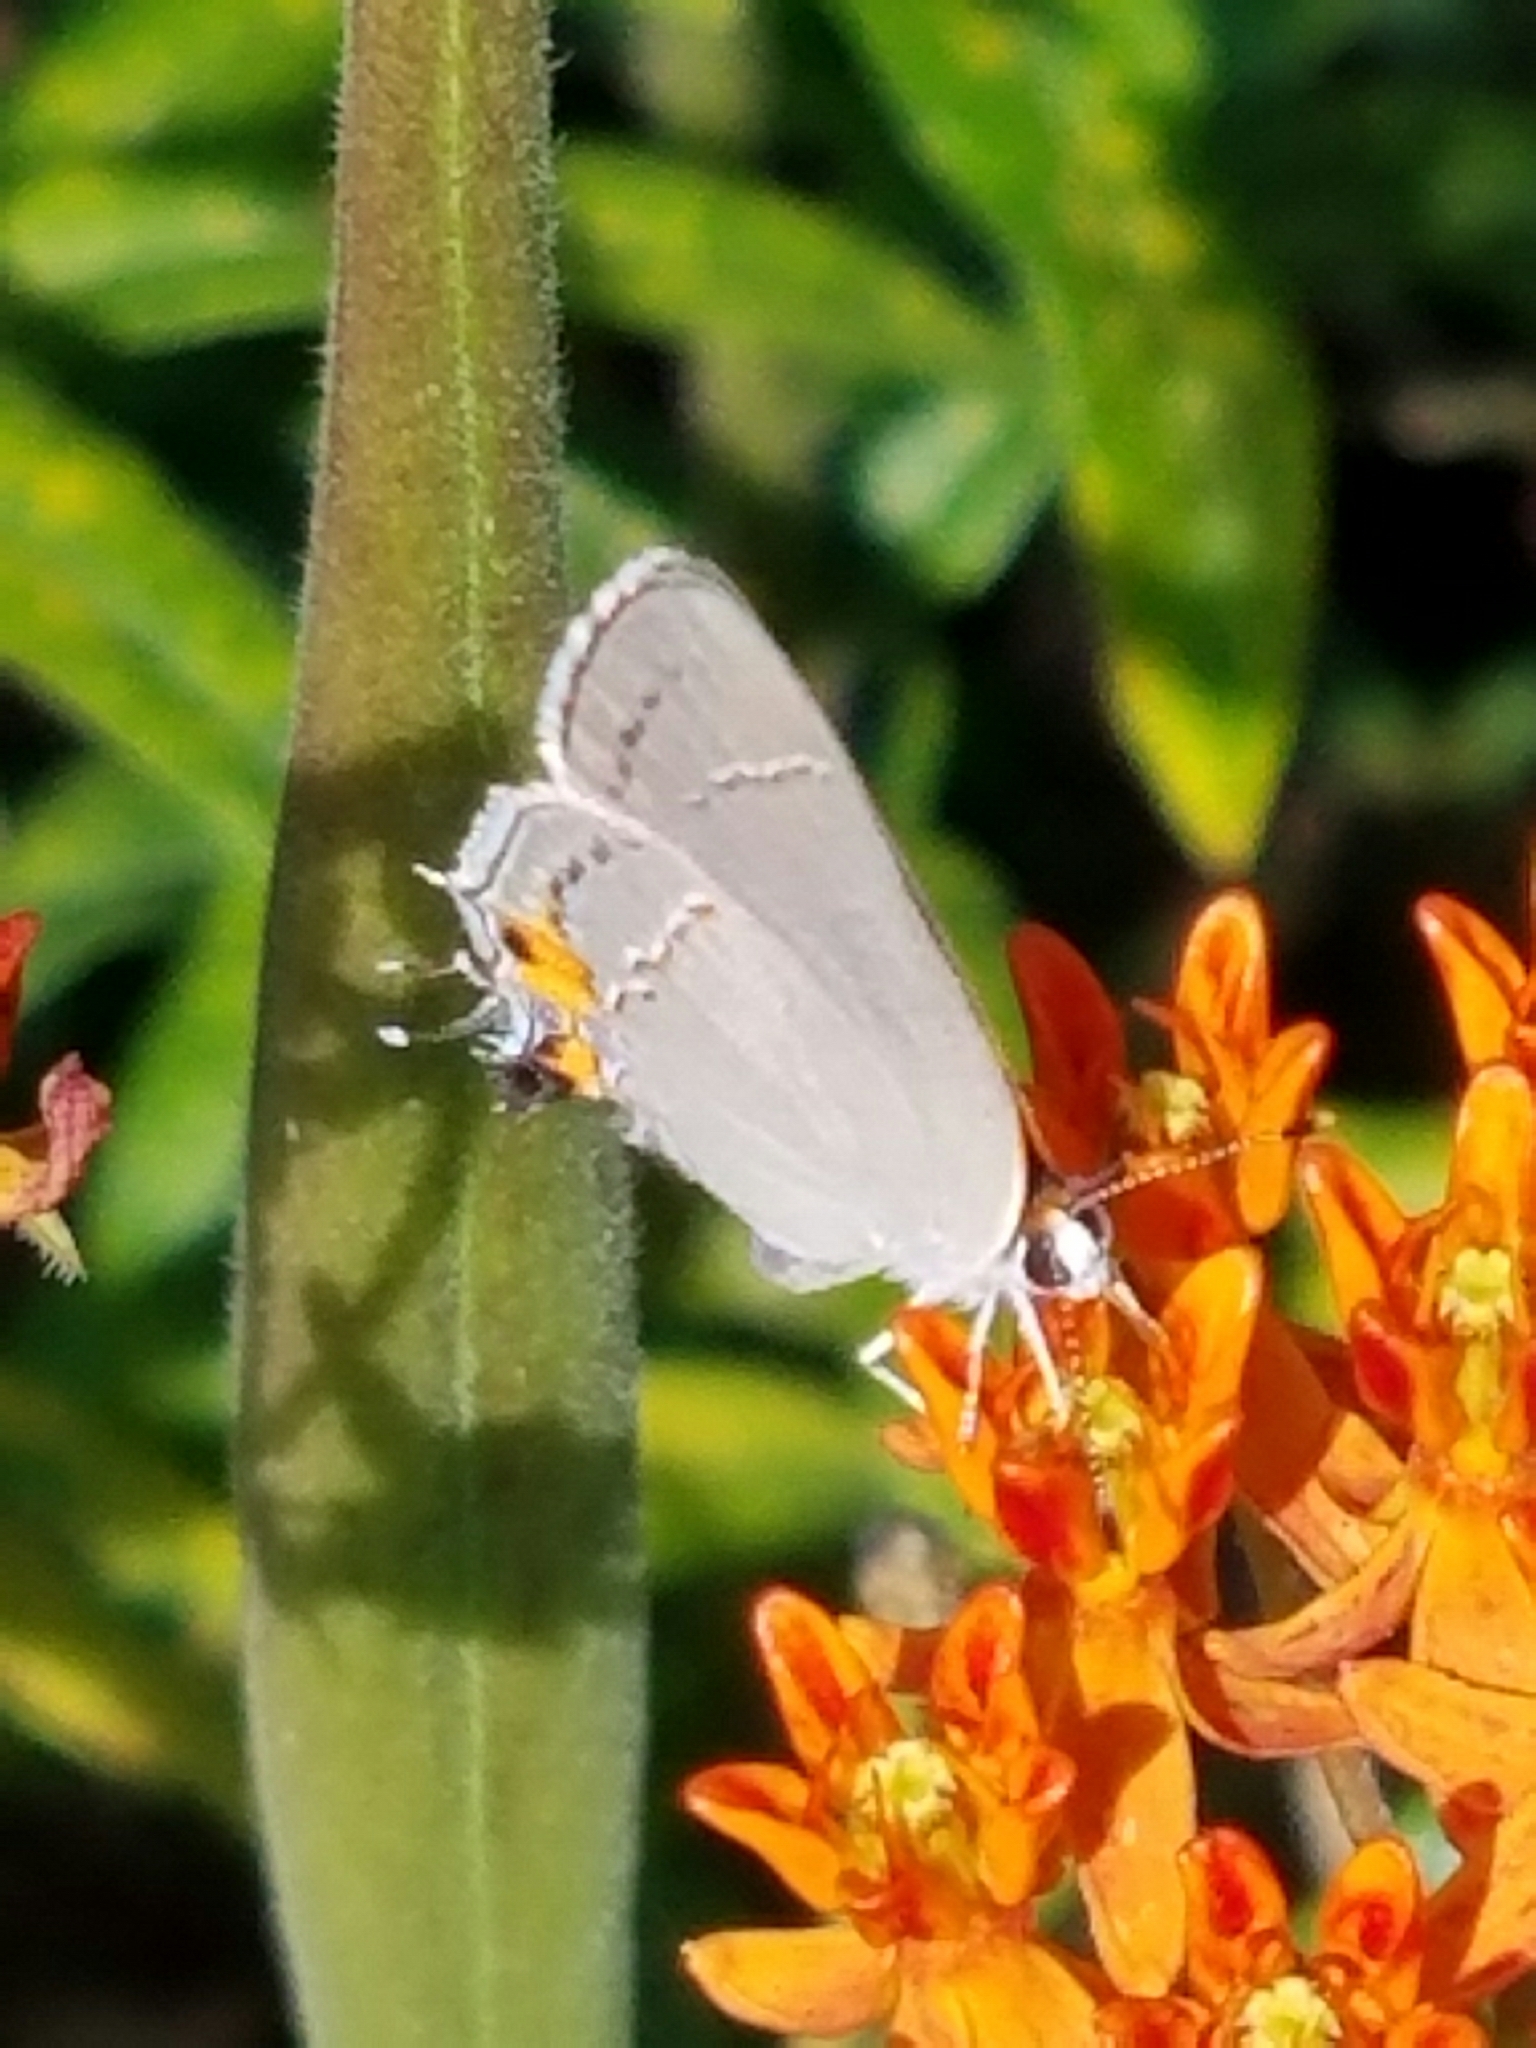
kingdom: Animalia
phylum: Arthropoda
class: Insecta
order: Lepidoptera
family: Lycaenidae
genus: Strymon
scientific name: Strymon melinus
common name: Gray hairstreak
